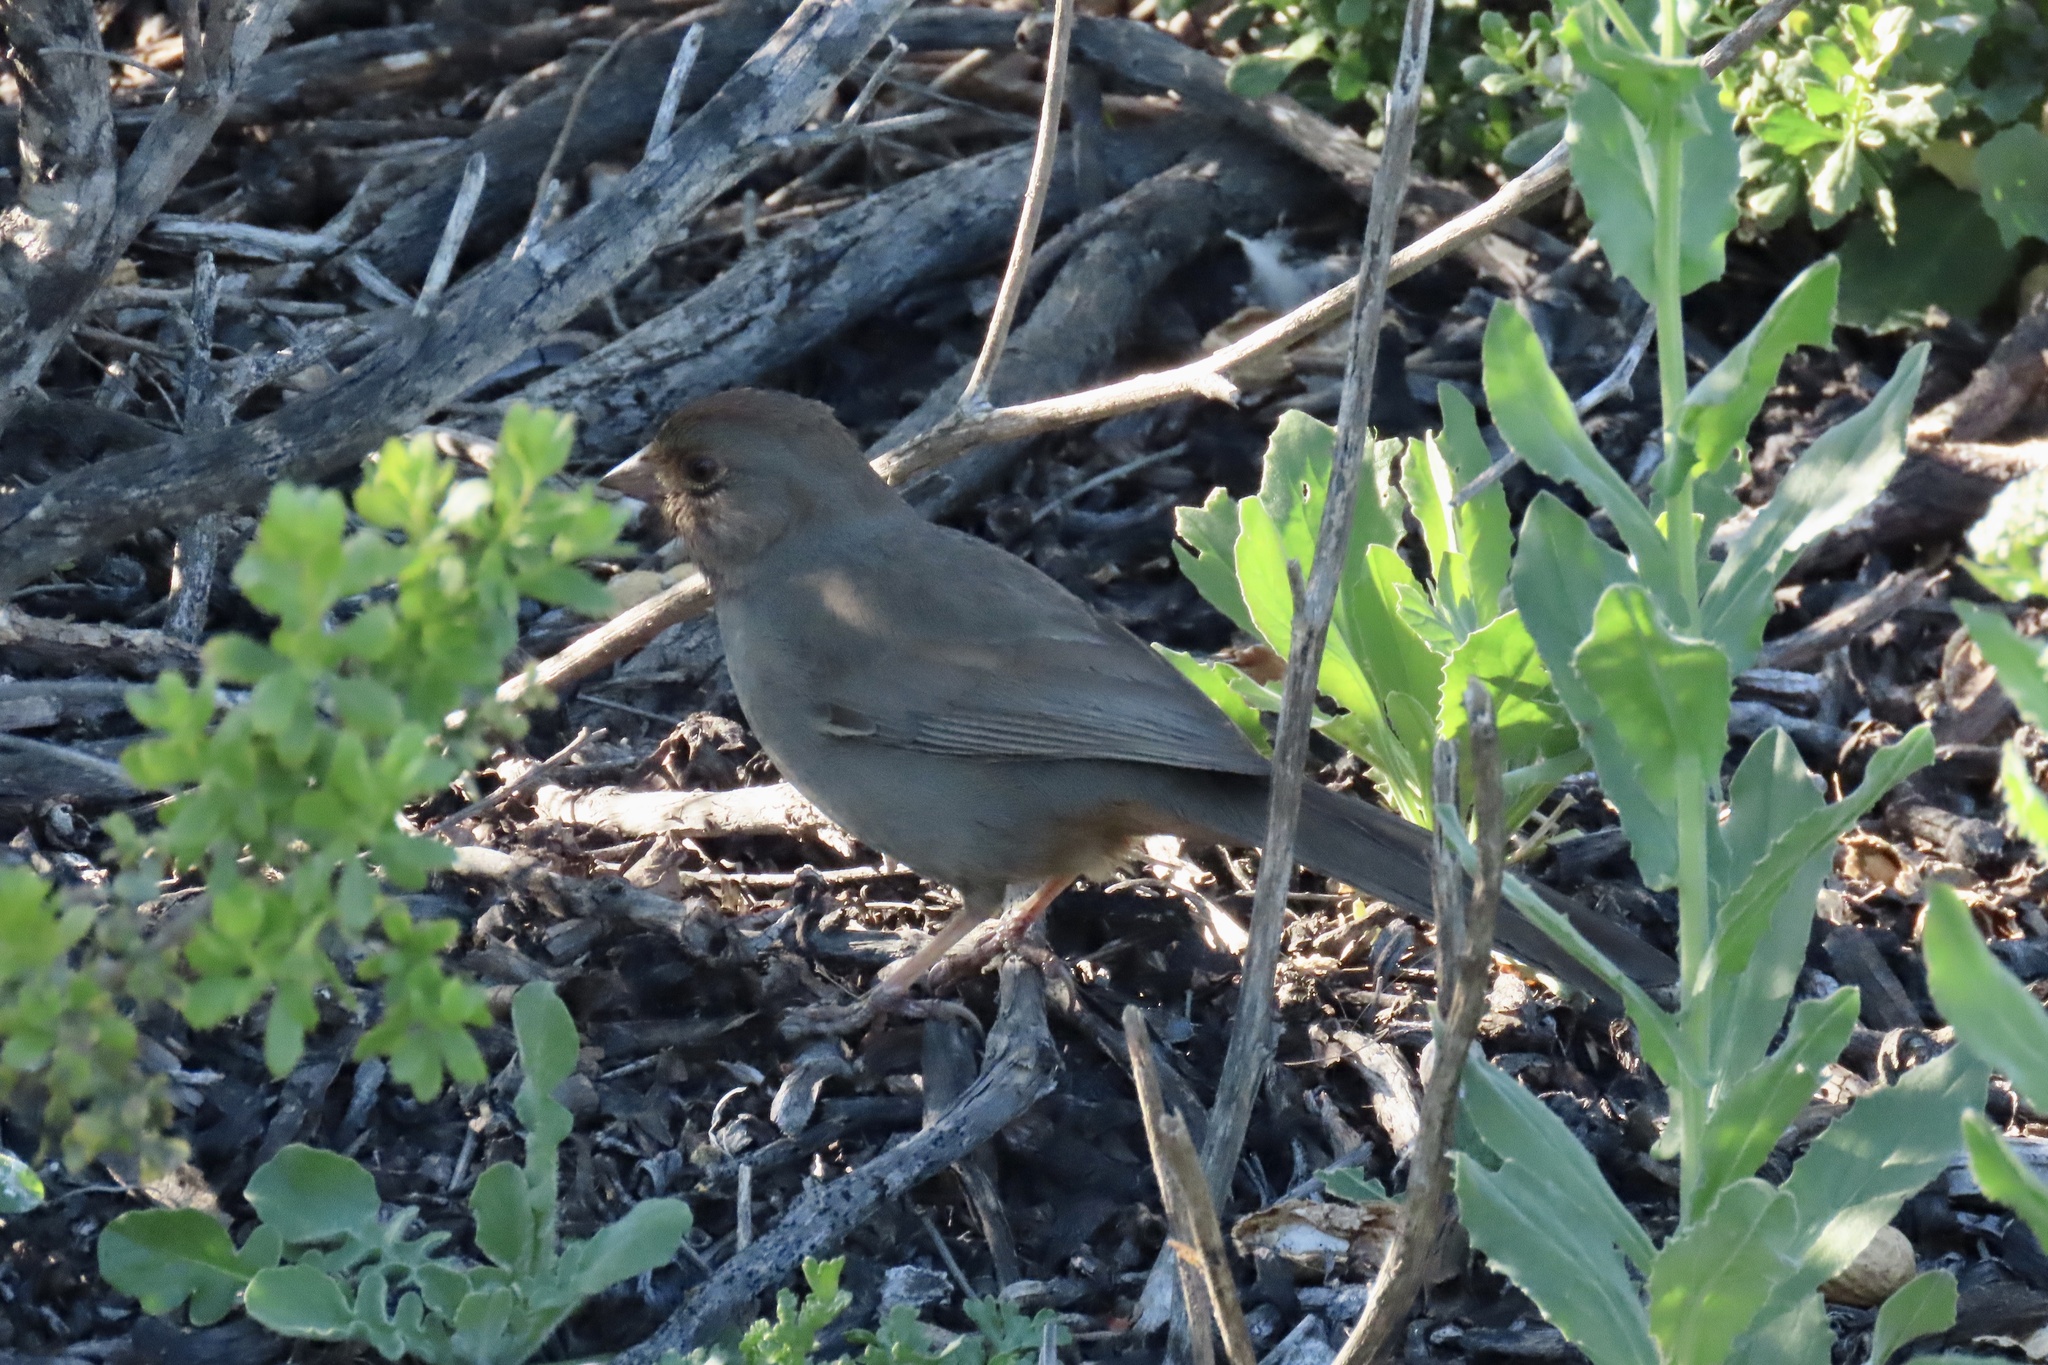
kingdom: Animalia
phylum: Chordata
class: Aves
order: Passeriformes
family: Passerellidae
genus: Melozone
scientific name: Melozone crissalis
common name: California towhee
